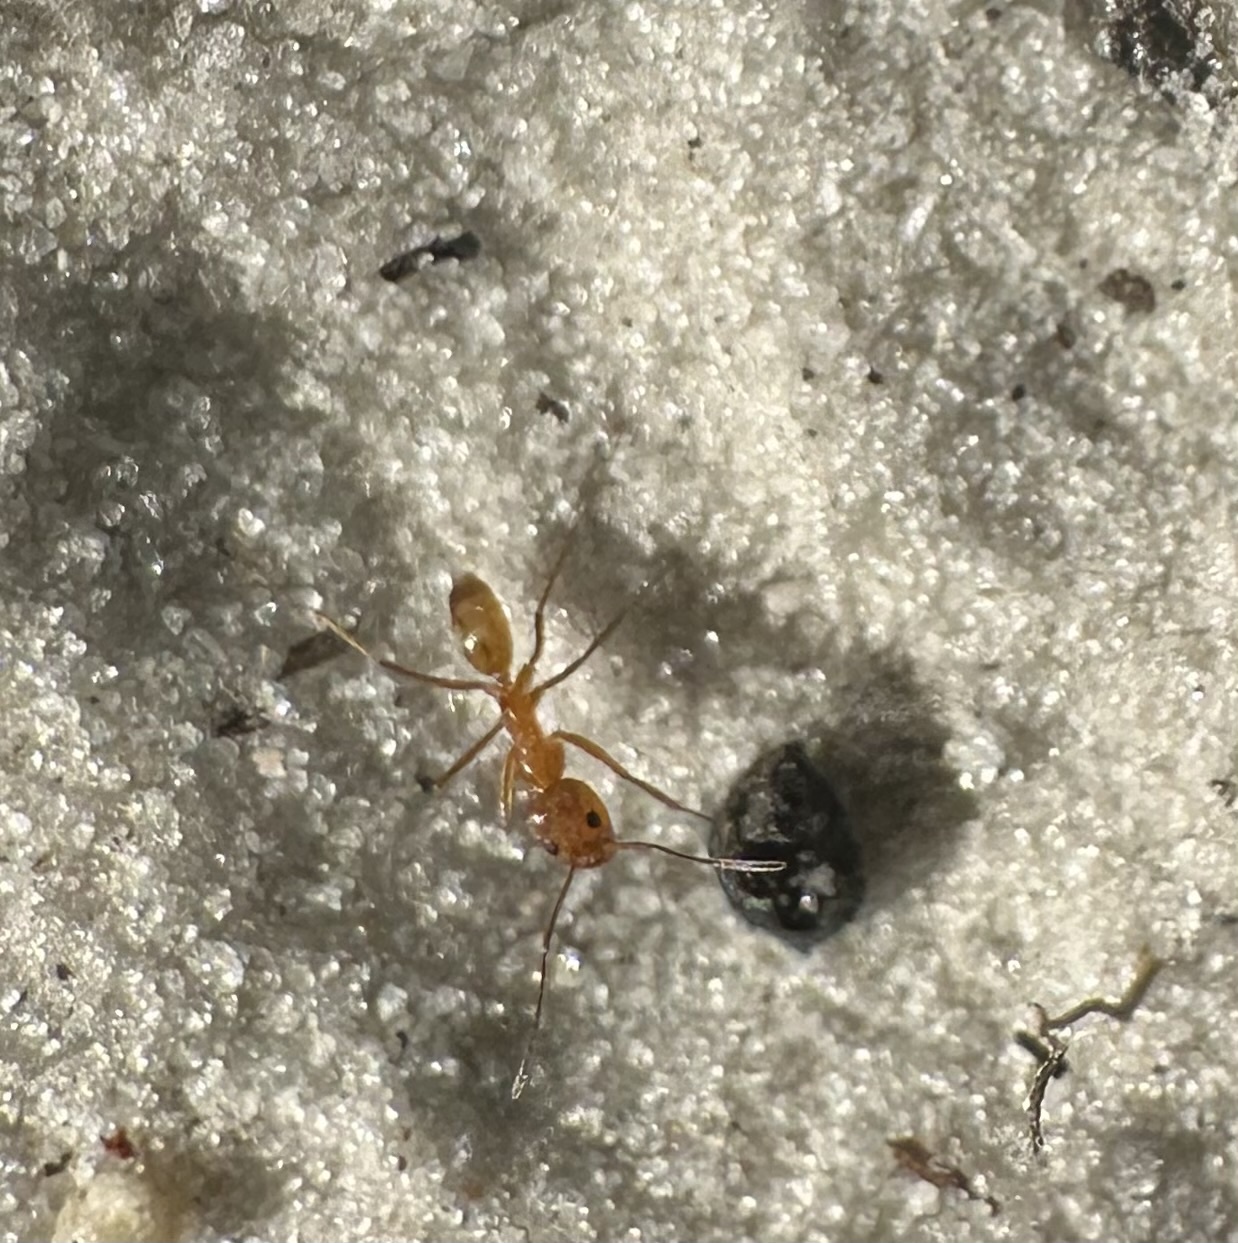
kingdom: Animalia
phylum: Arthropoda
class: Insecta
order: Hymenoptera
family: Formicidae
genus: Dorymyrmex
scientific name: Dorymyrmex bureni
